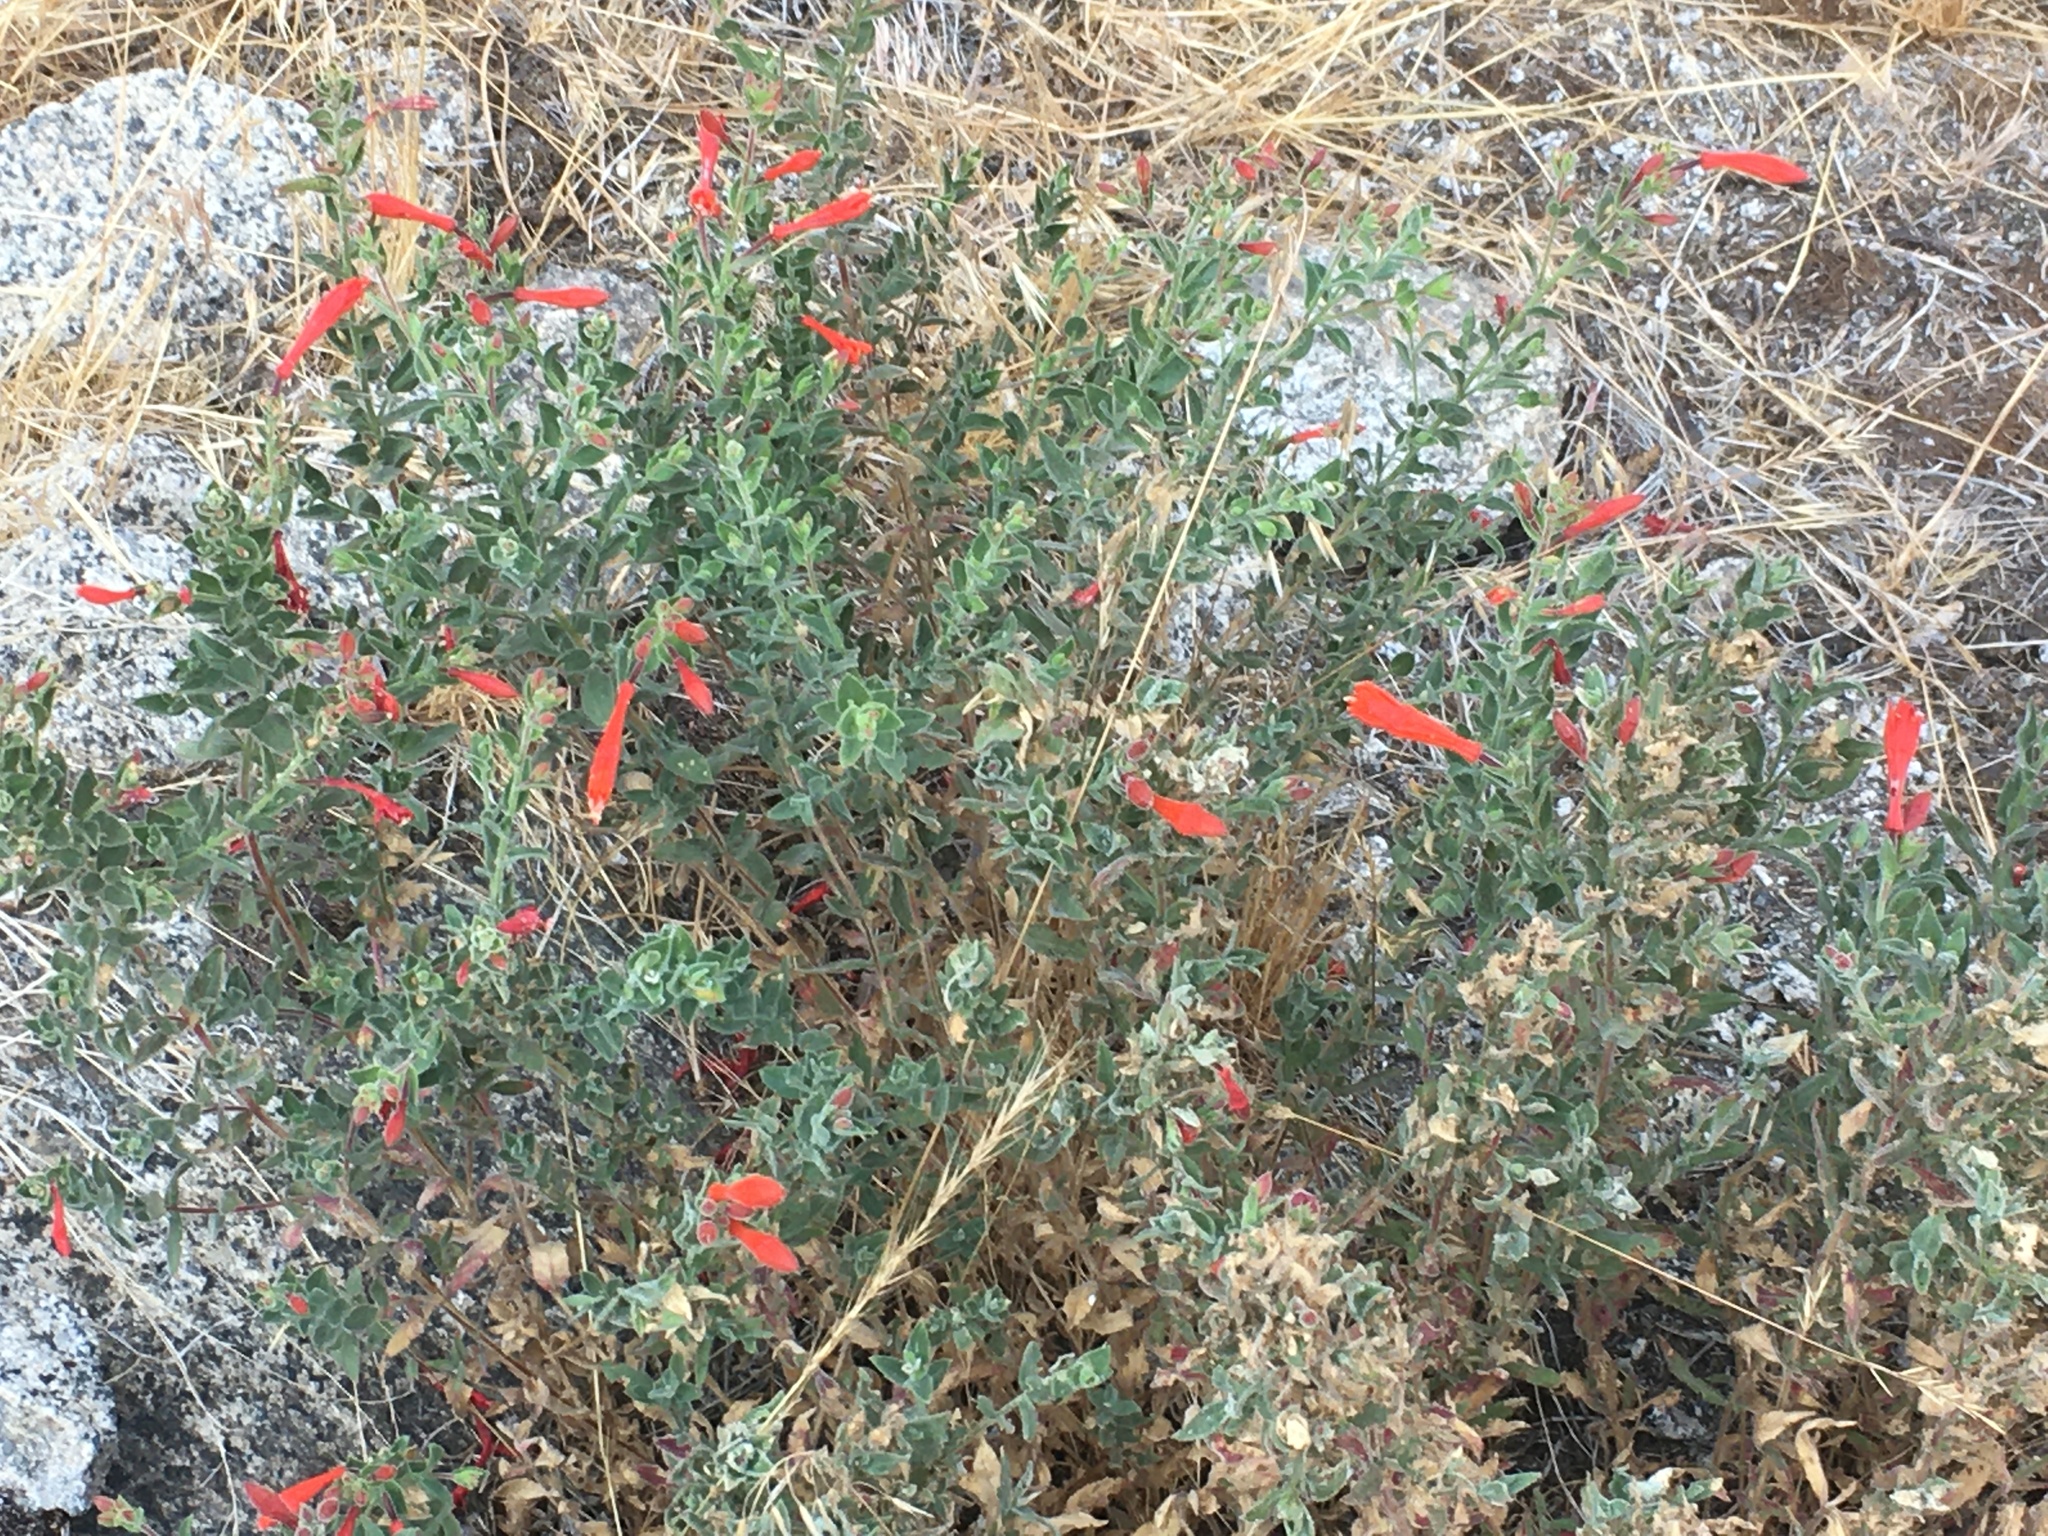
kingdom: Plantae
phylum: Tracheophyta
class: Magnoliopsida
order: Myrtales
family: Onagraceae
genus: Epilobium
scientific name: Epilobium canum
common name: California-fuchsia
